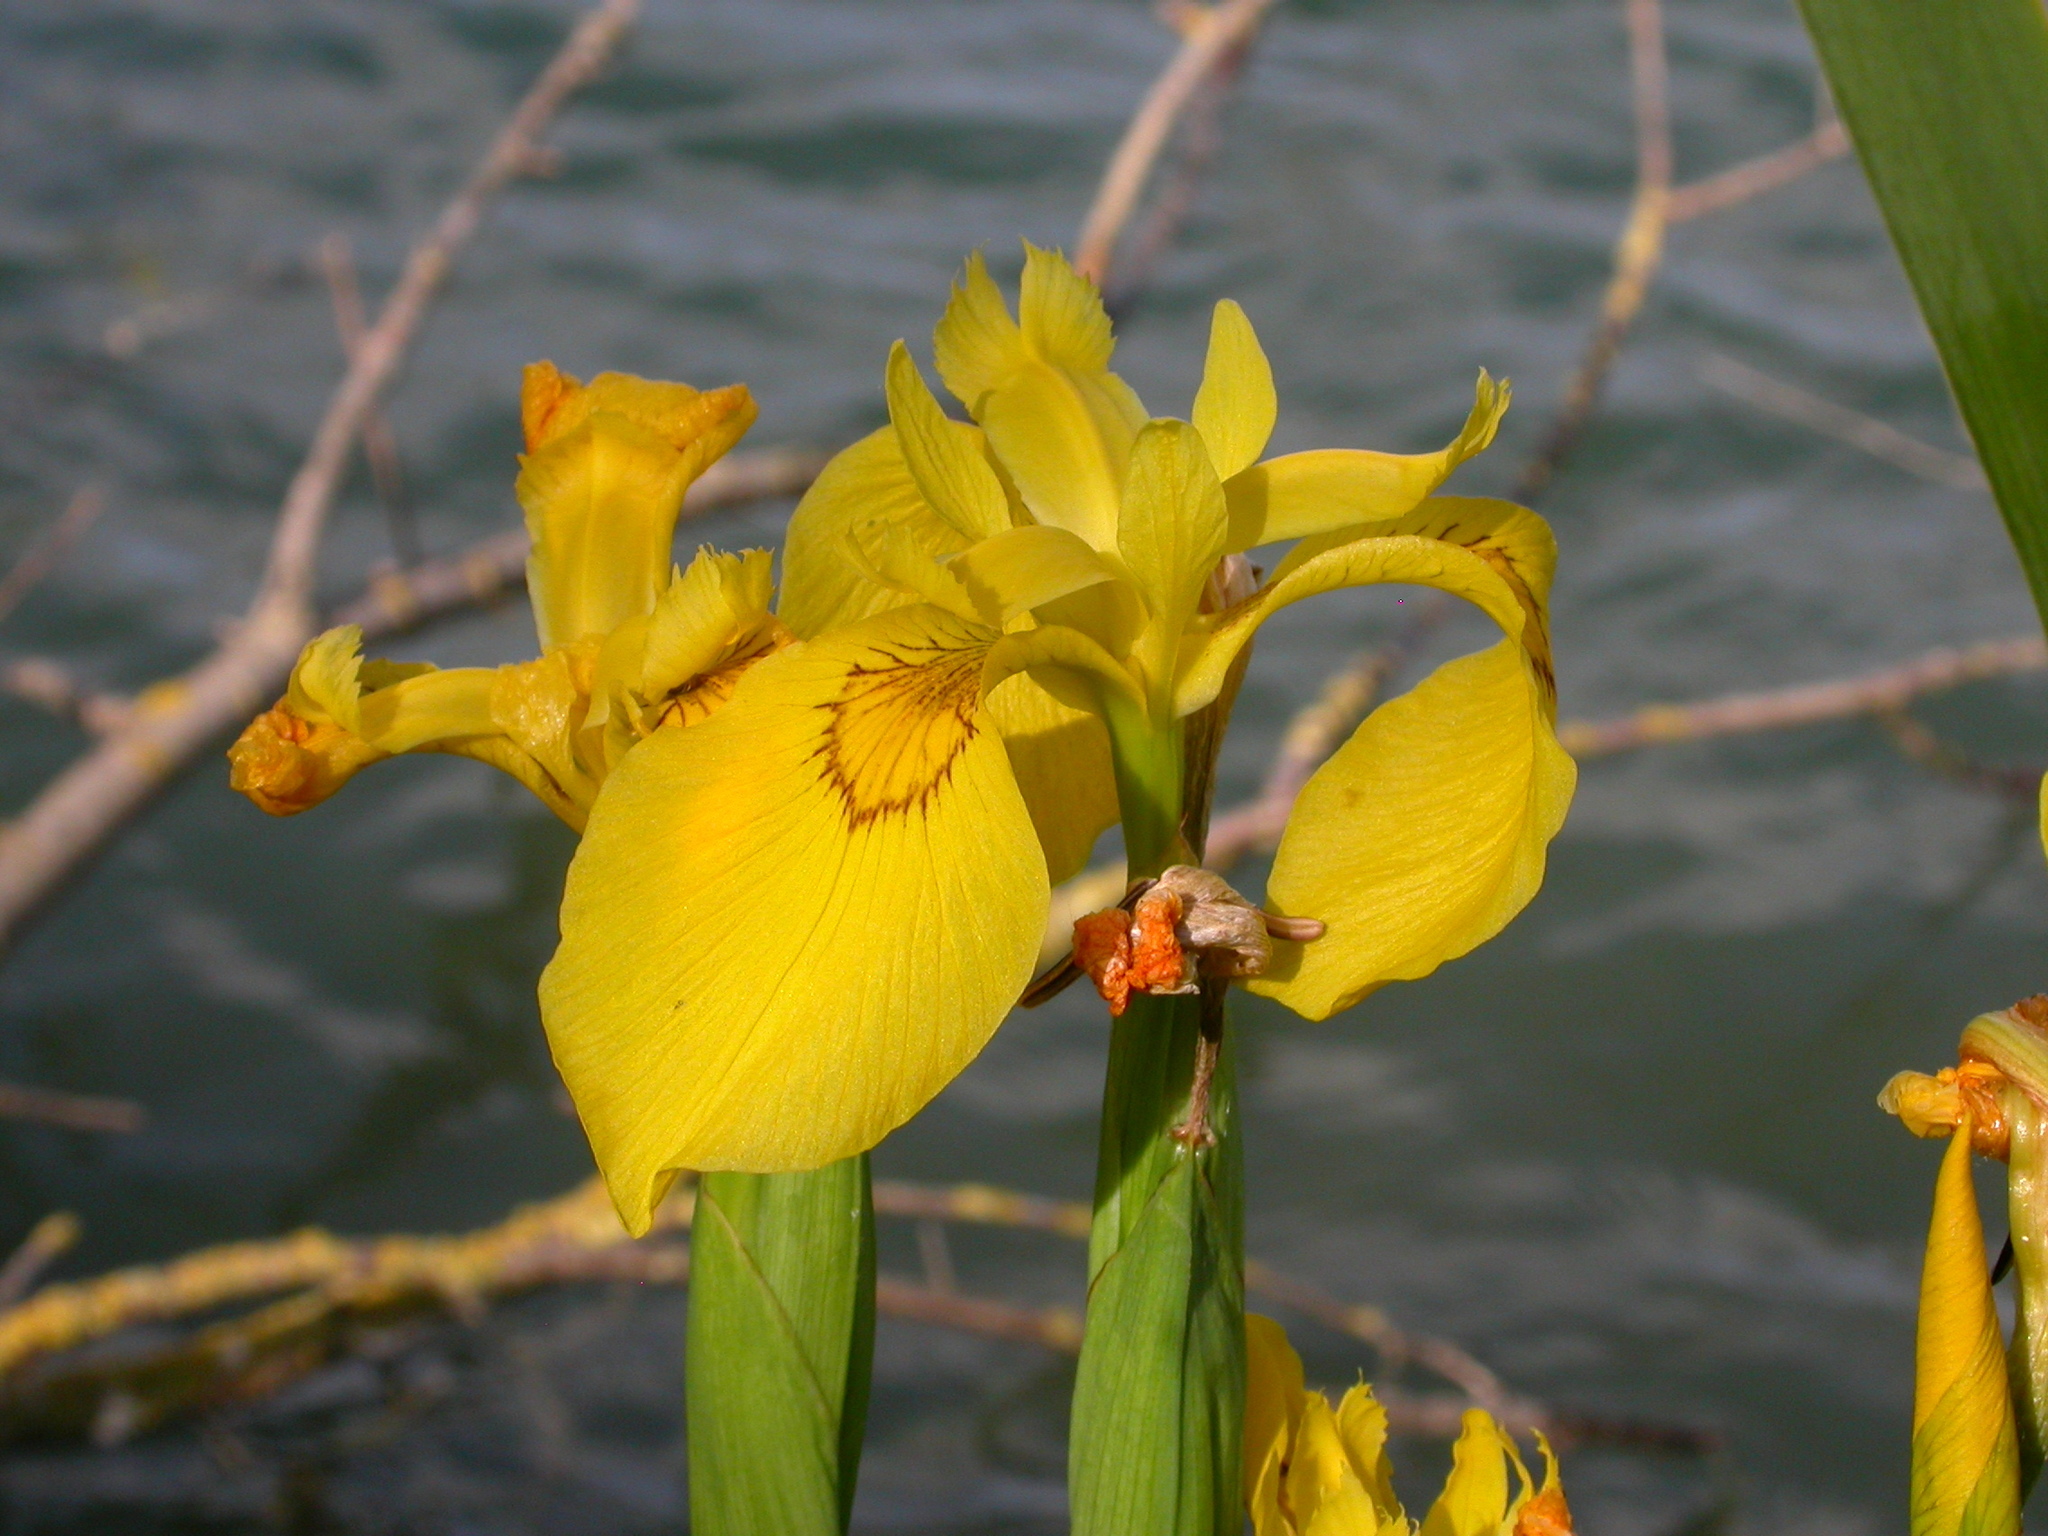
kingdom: Plantae
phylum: Tracheophyta
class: Liliopsida
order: Asparagales
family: Iridaceae
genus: Iris
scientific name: Iris pseudacorus
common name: Yellow flag
